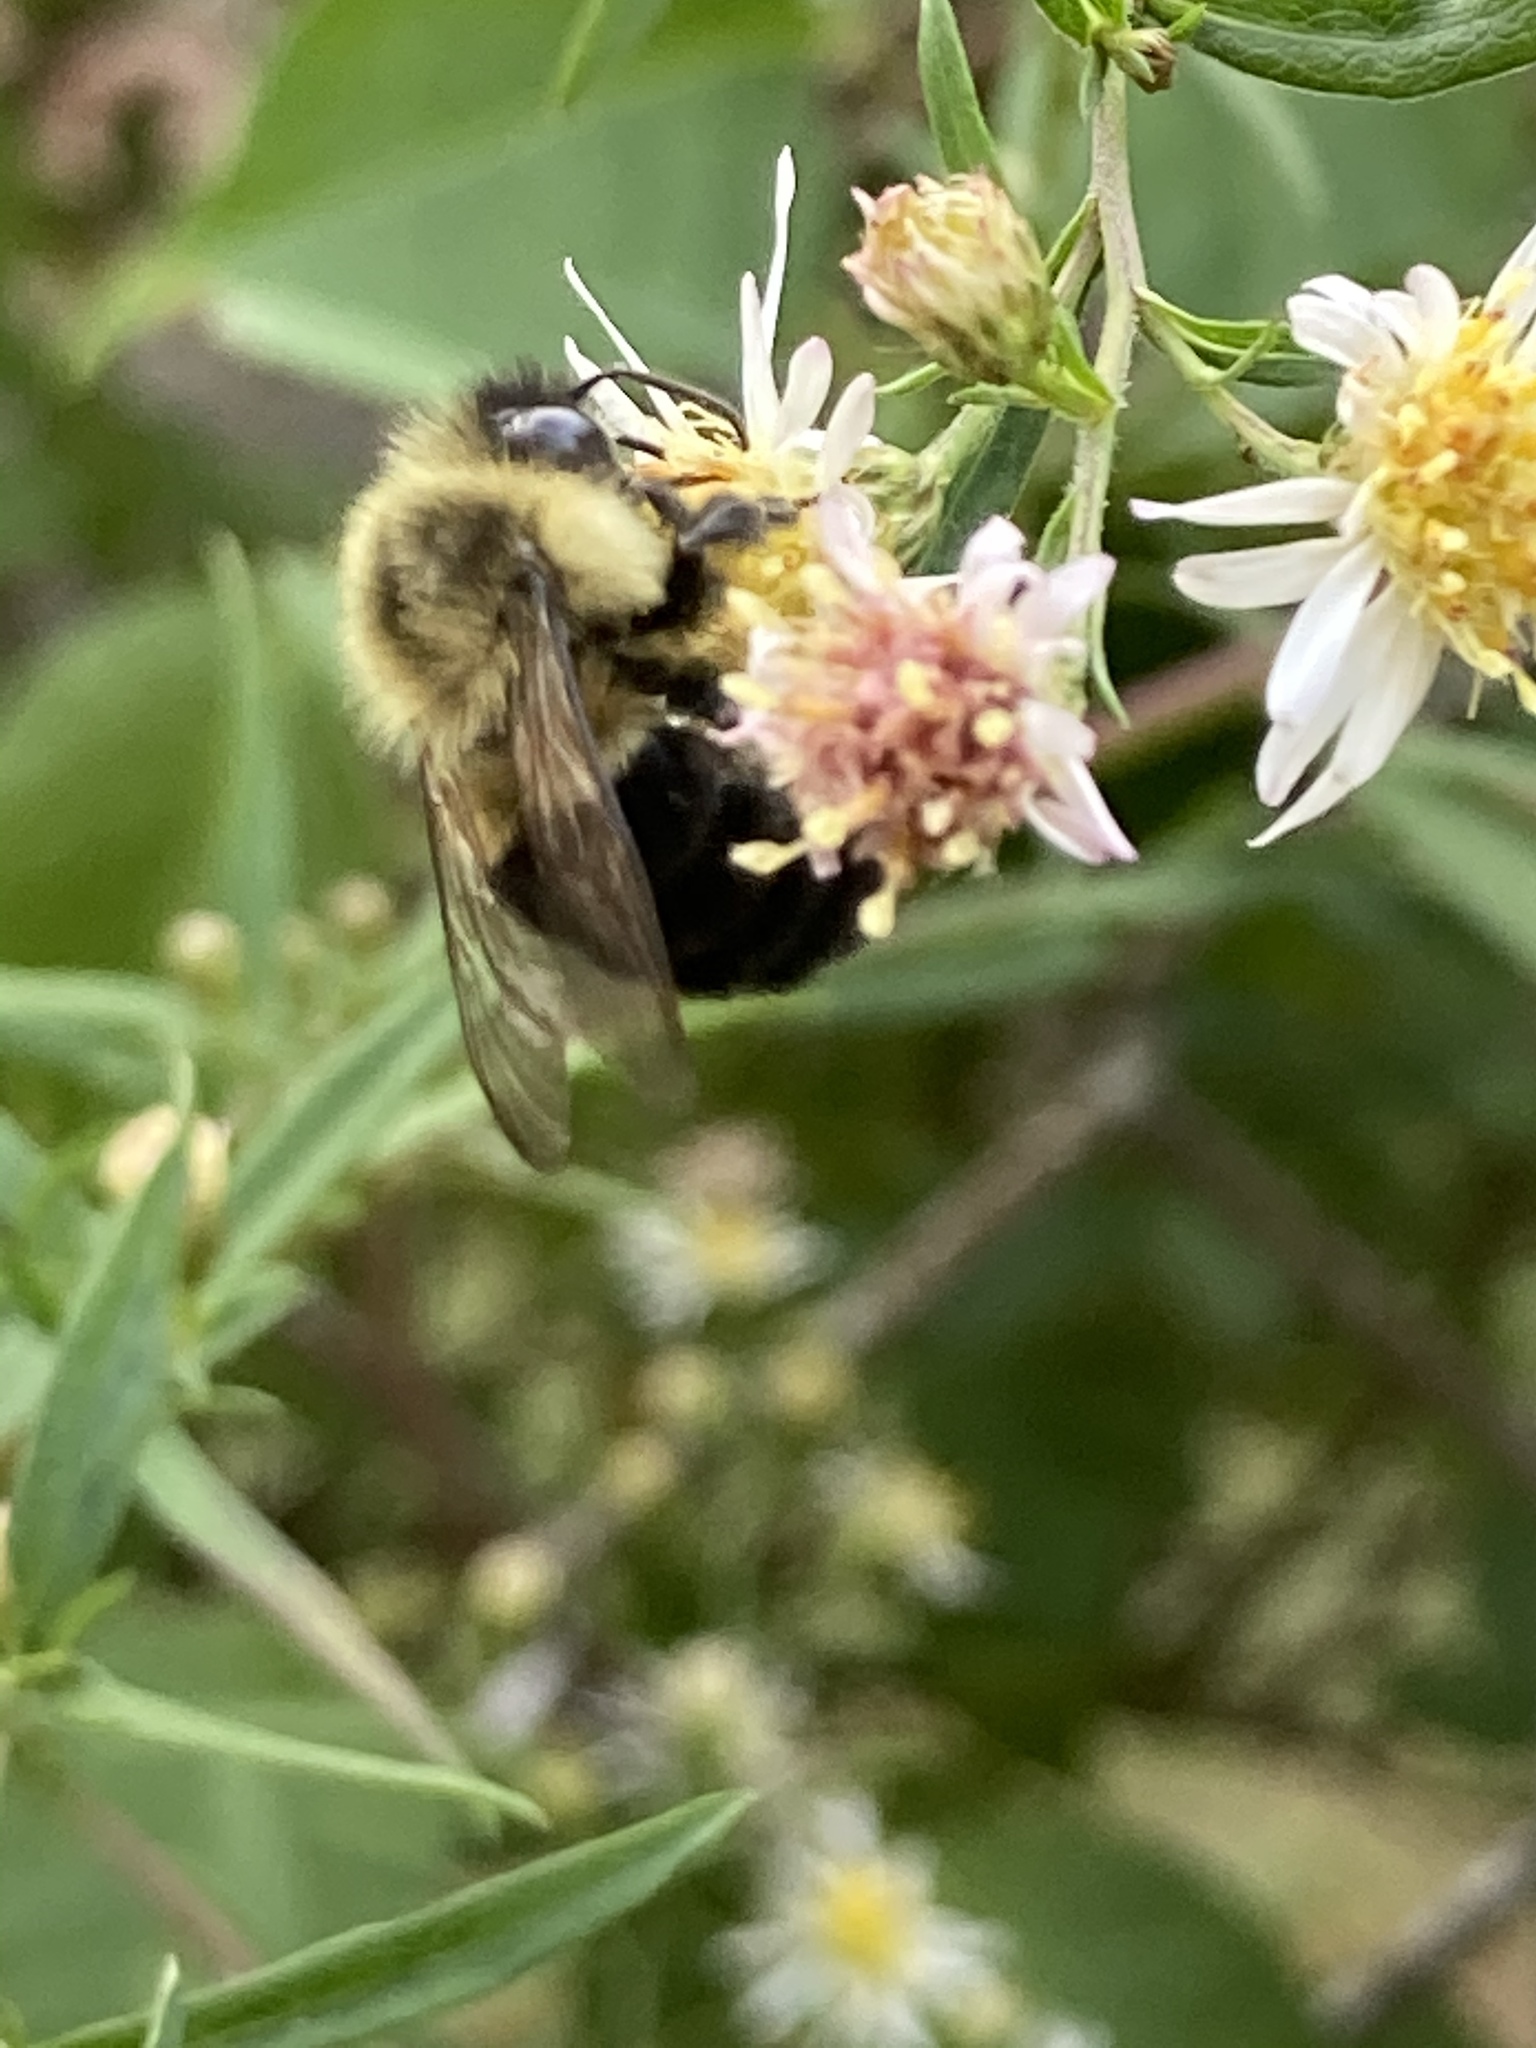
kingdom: Animalia
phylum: Arthropoda
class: Insecta
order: Hymenoptera
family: Apidae
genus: Bombus
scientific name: Bombus impatiens
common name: Common eastern bumble bee
